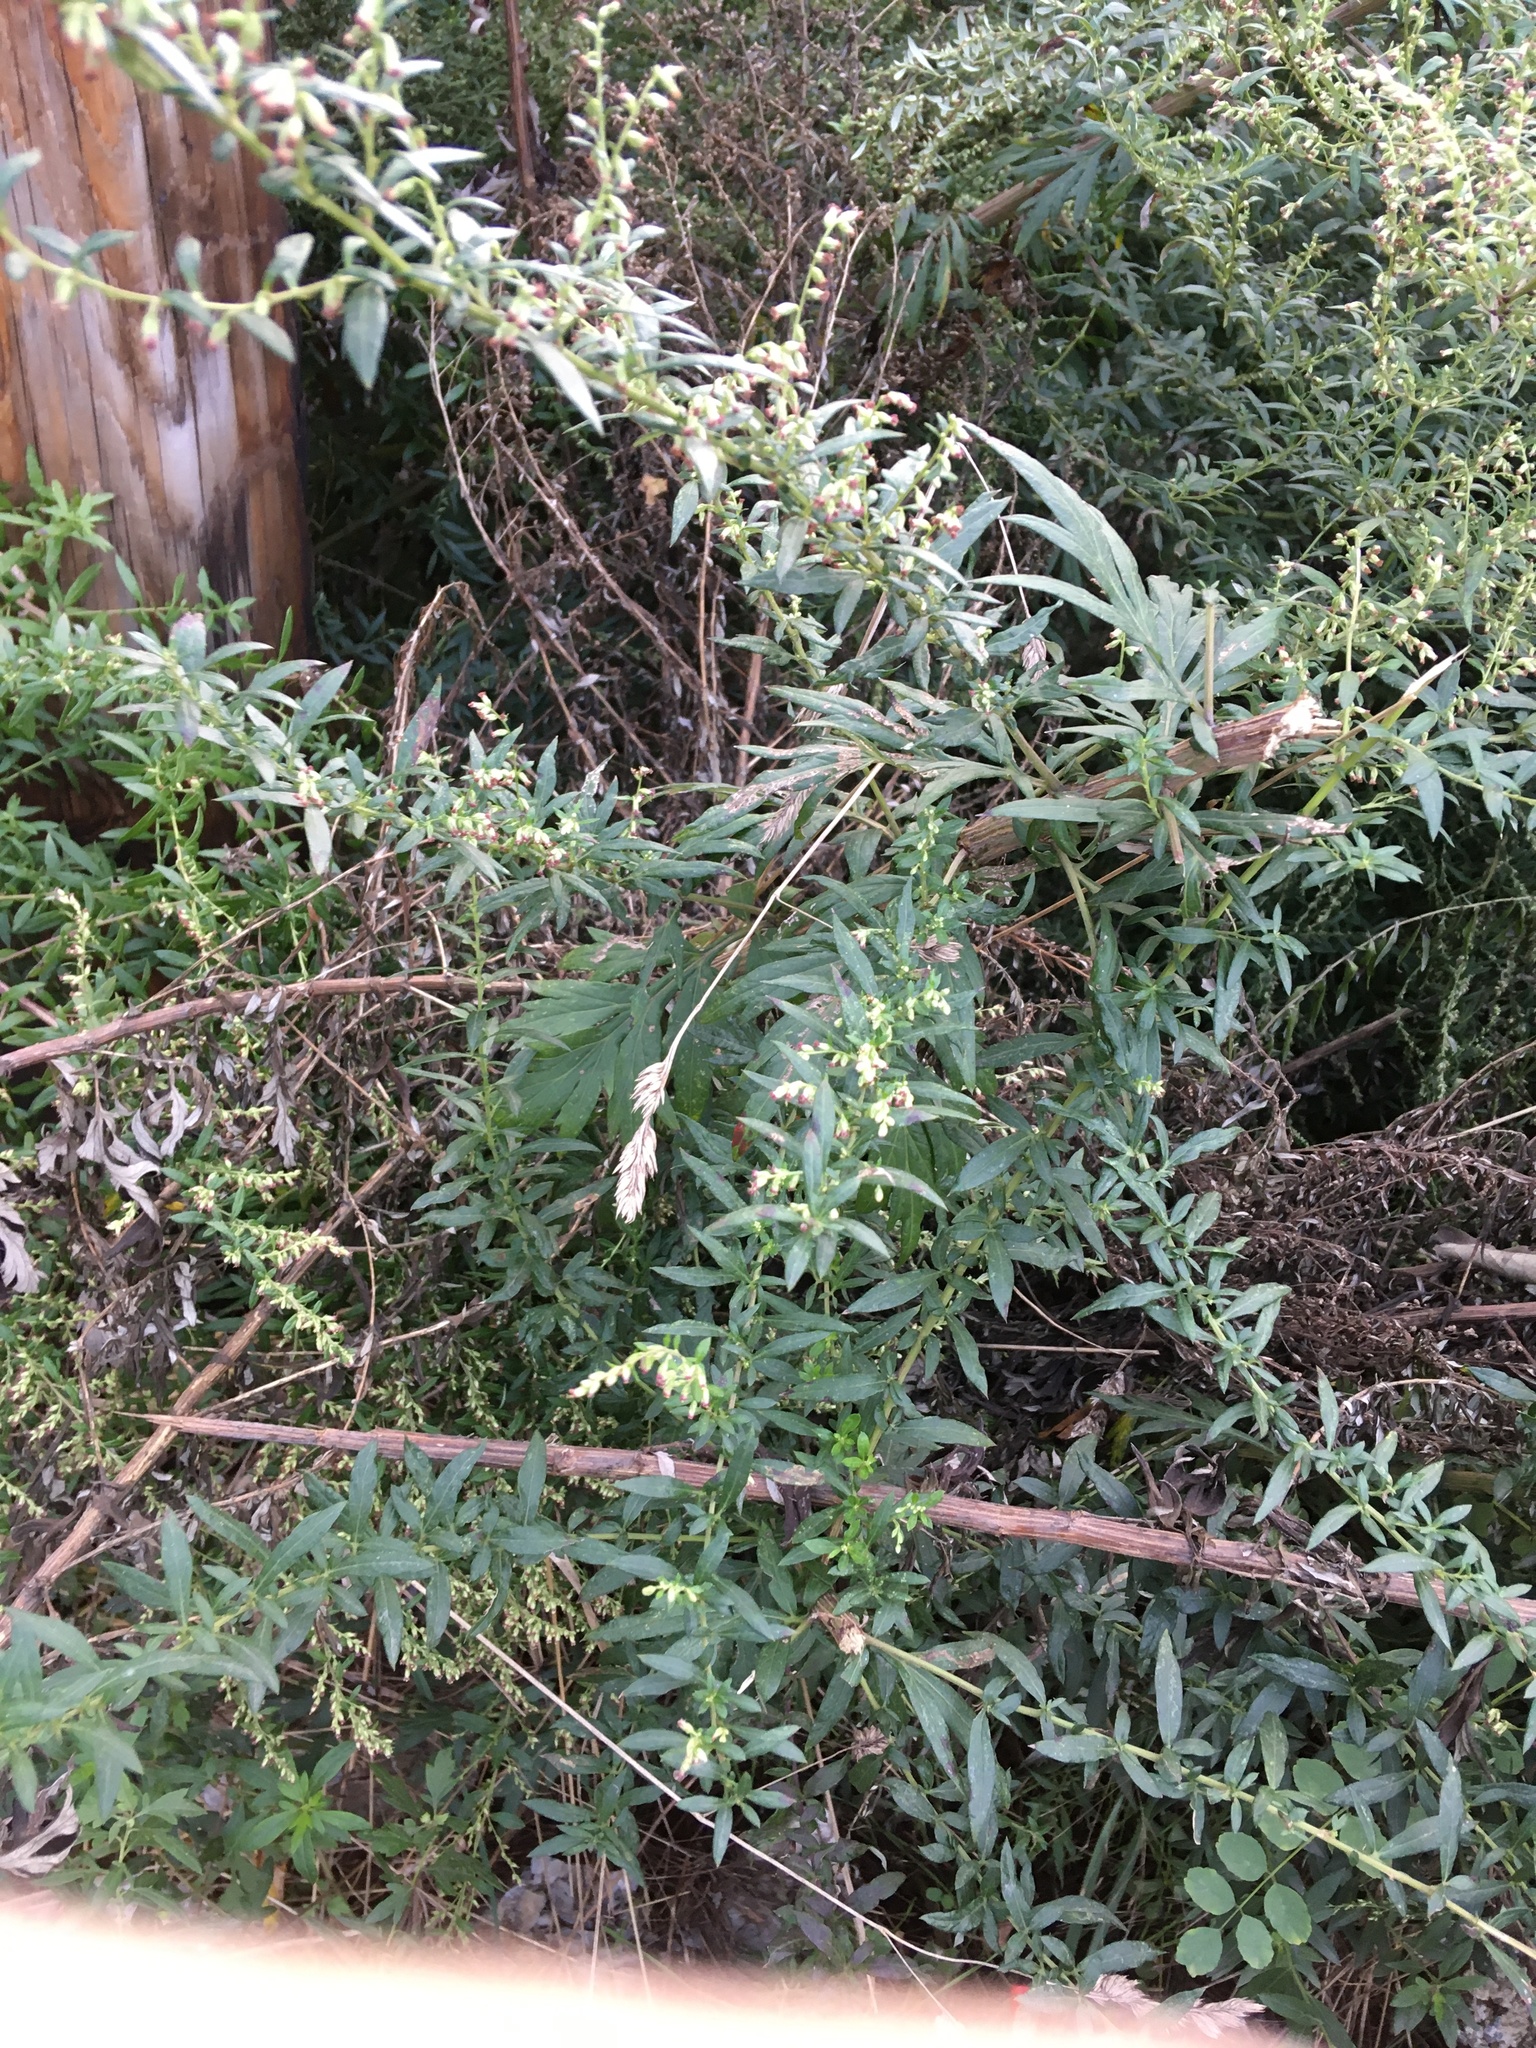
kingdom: Plantae
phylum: Tracheophyta
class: Magnoliopsida
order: Asterales
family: Asteraceae
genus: Artemisia
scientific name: Artemisia vulgaris
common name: Mugwort
